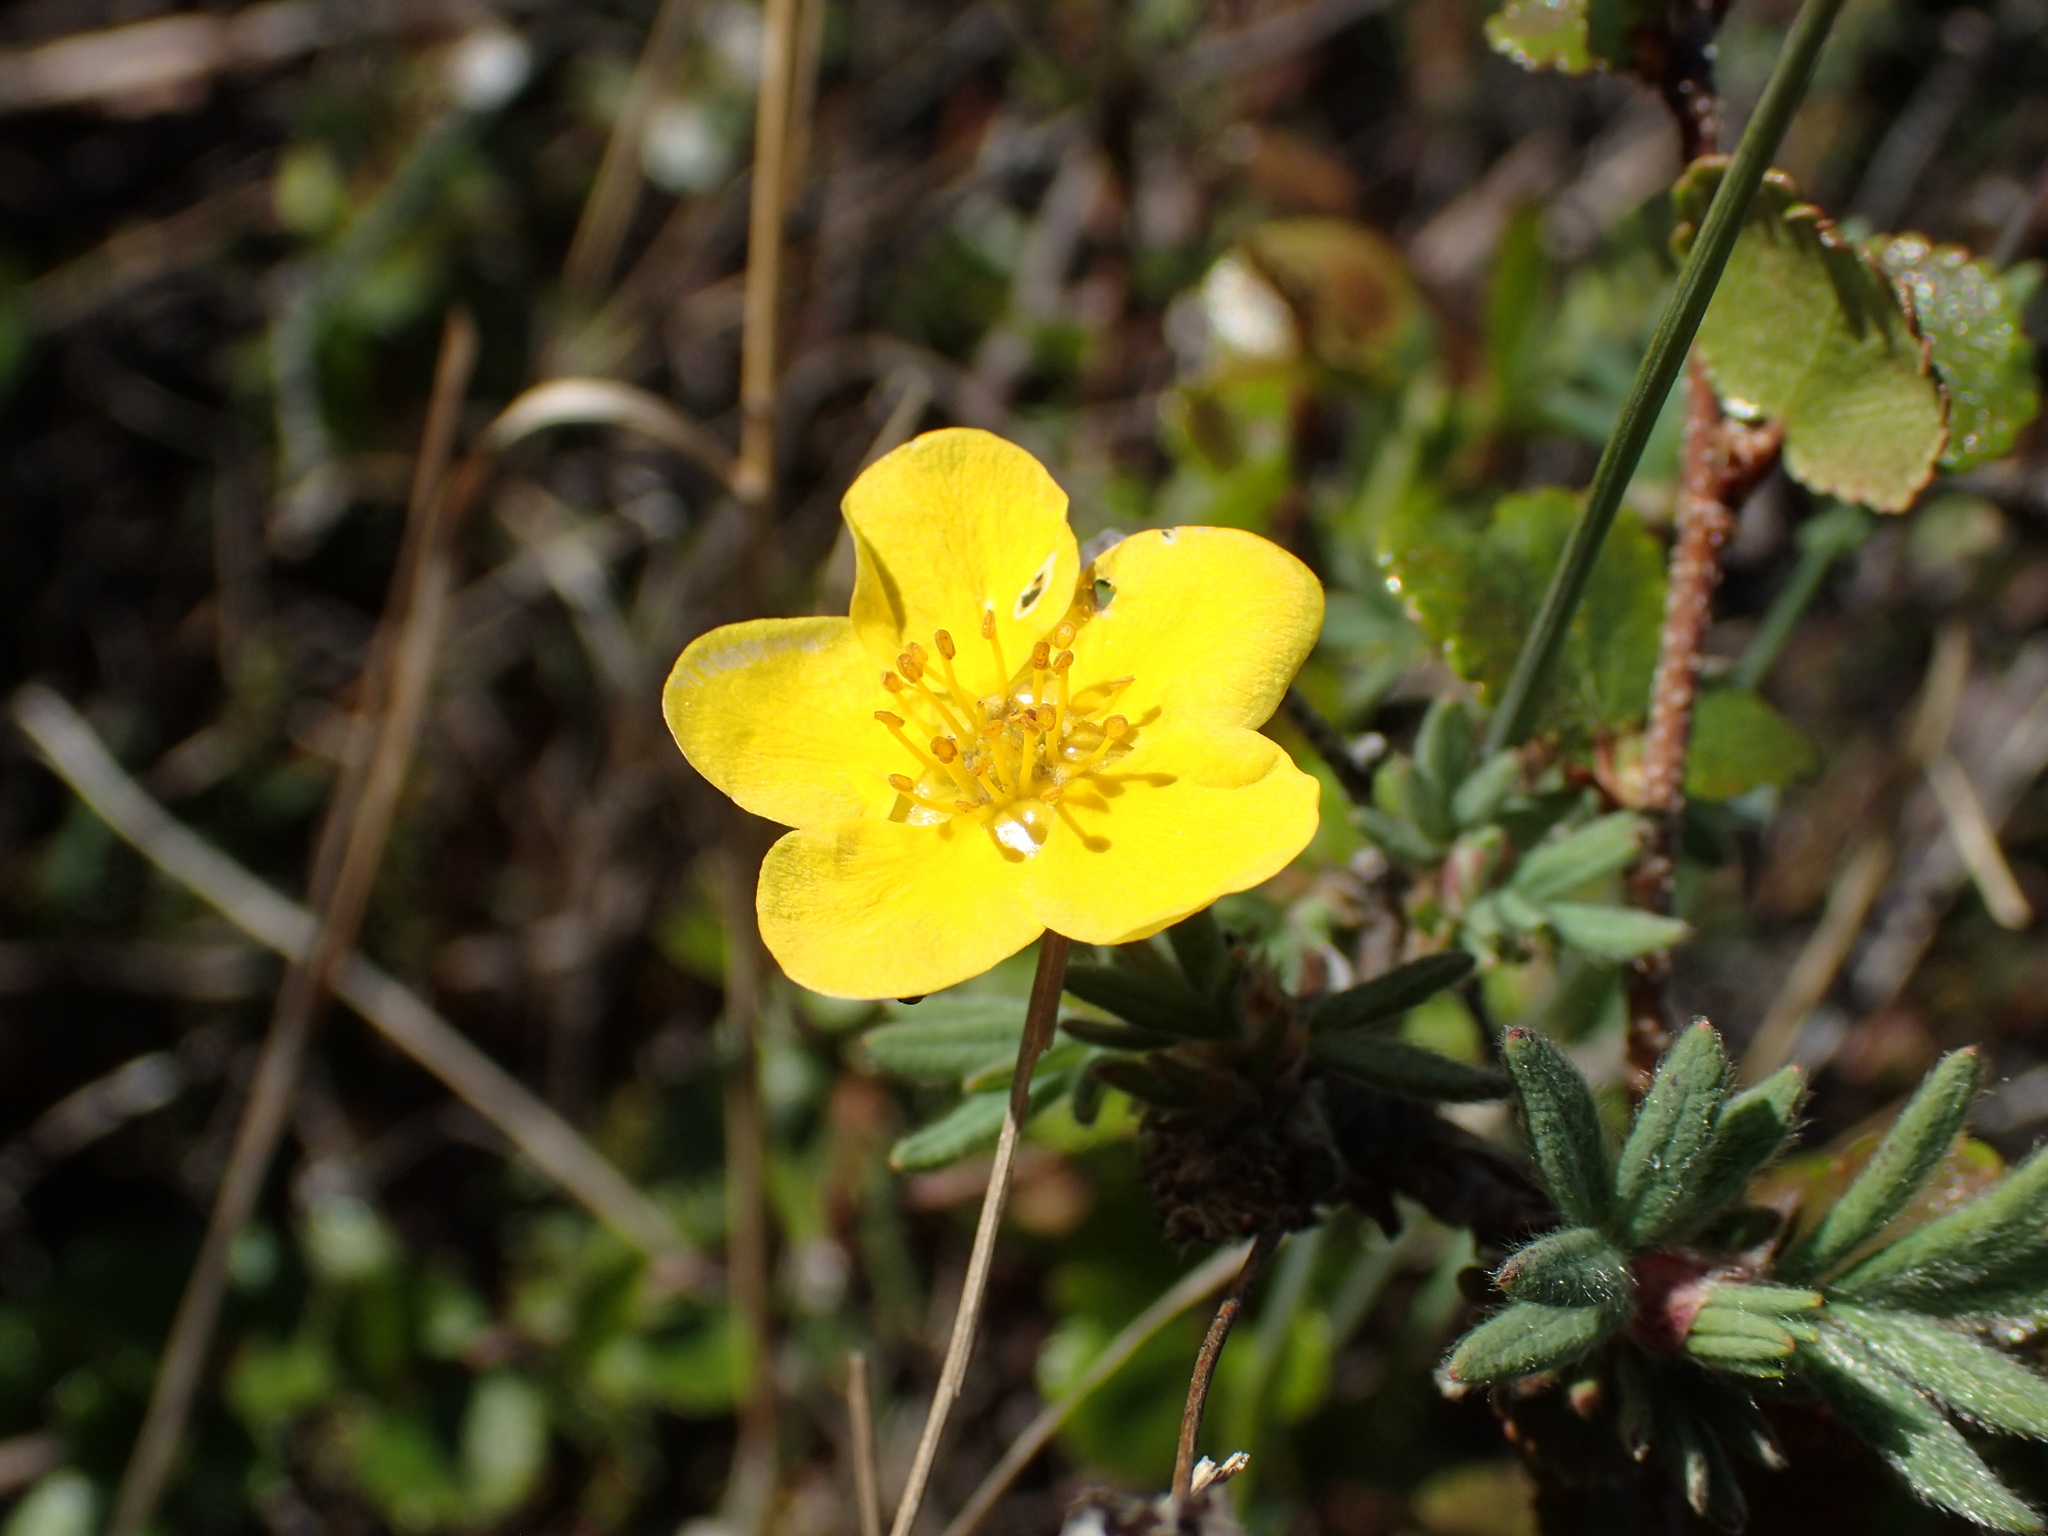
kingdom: Plantae
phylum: Tracheophyta
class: Magnoliopsida
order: Rosales
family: Rosaceae
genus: Dasiphora
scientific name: Dasiphora fruticosa
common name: Shrubby cinquefoil
